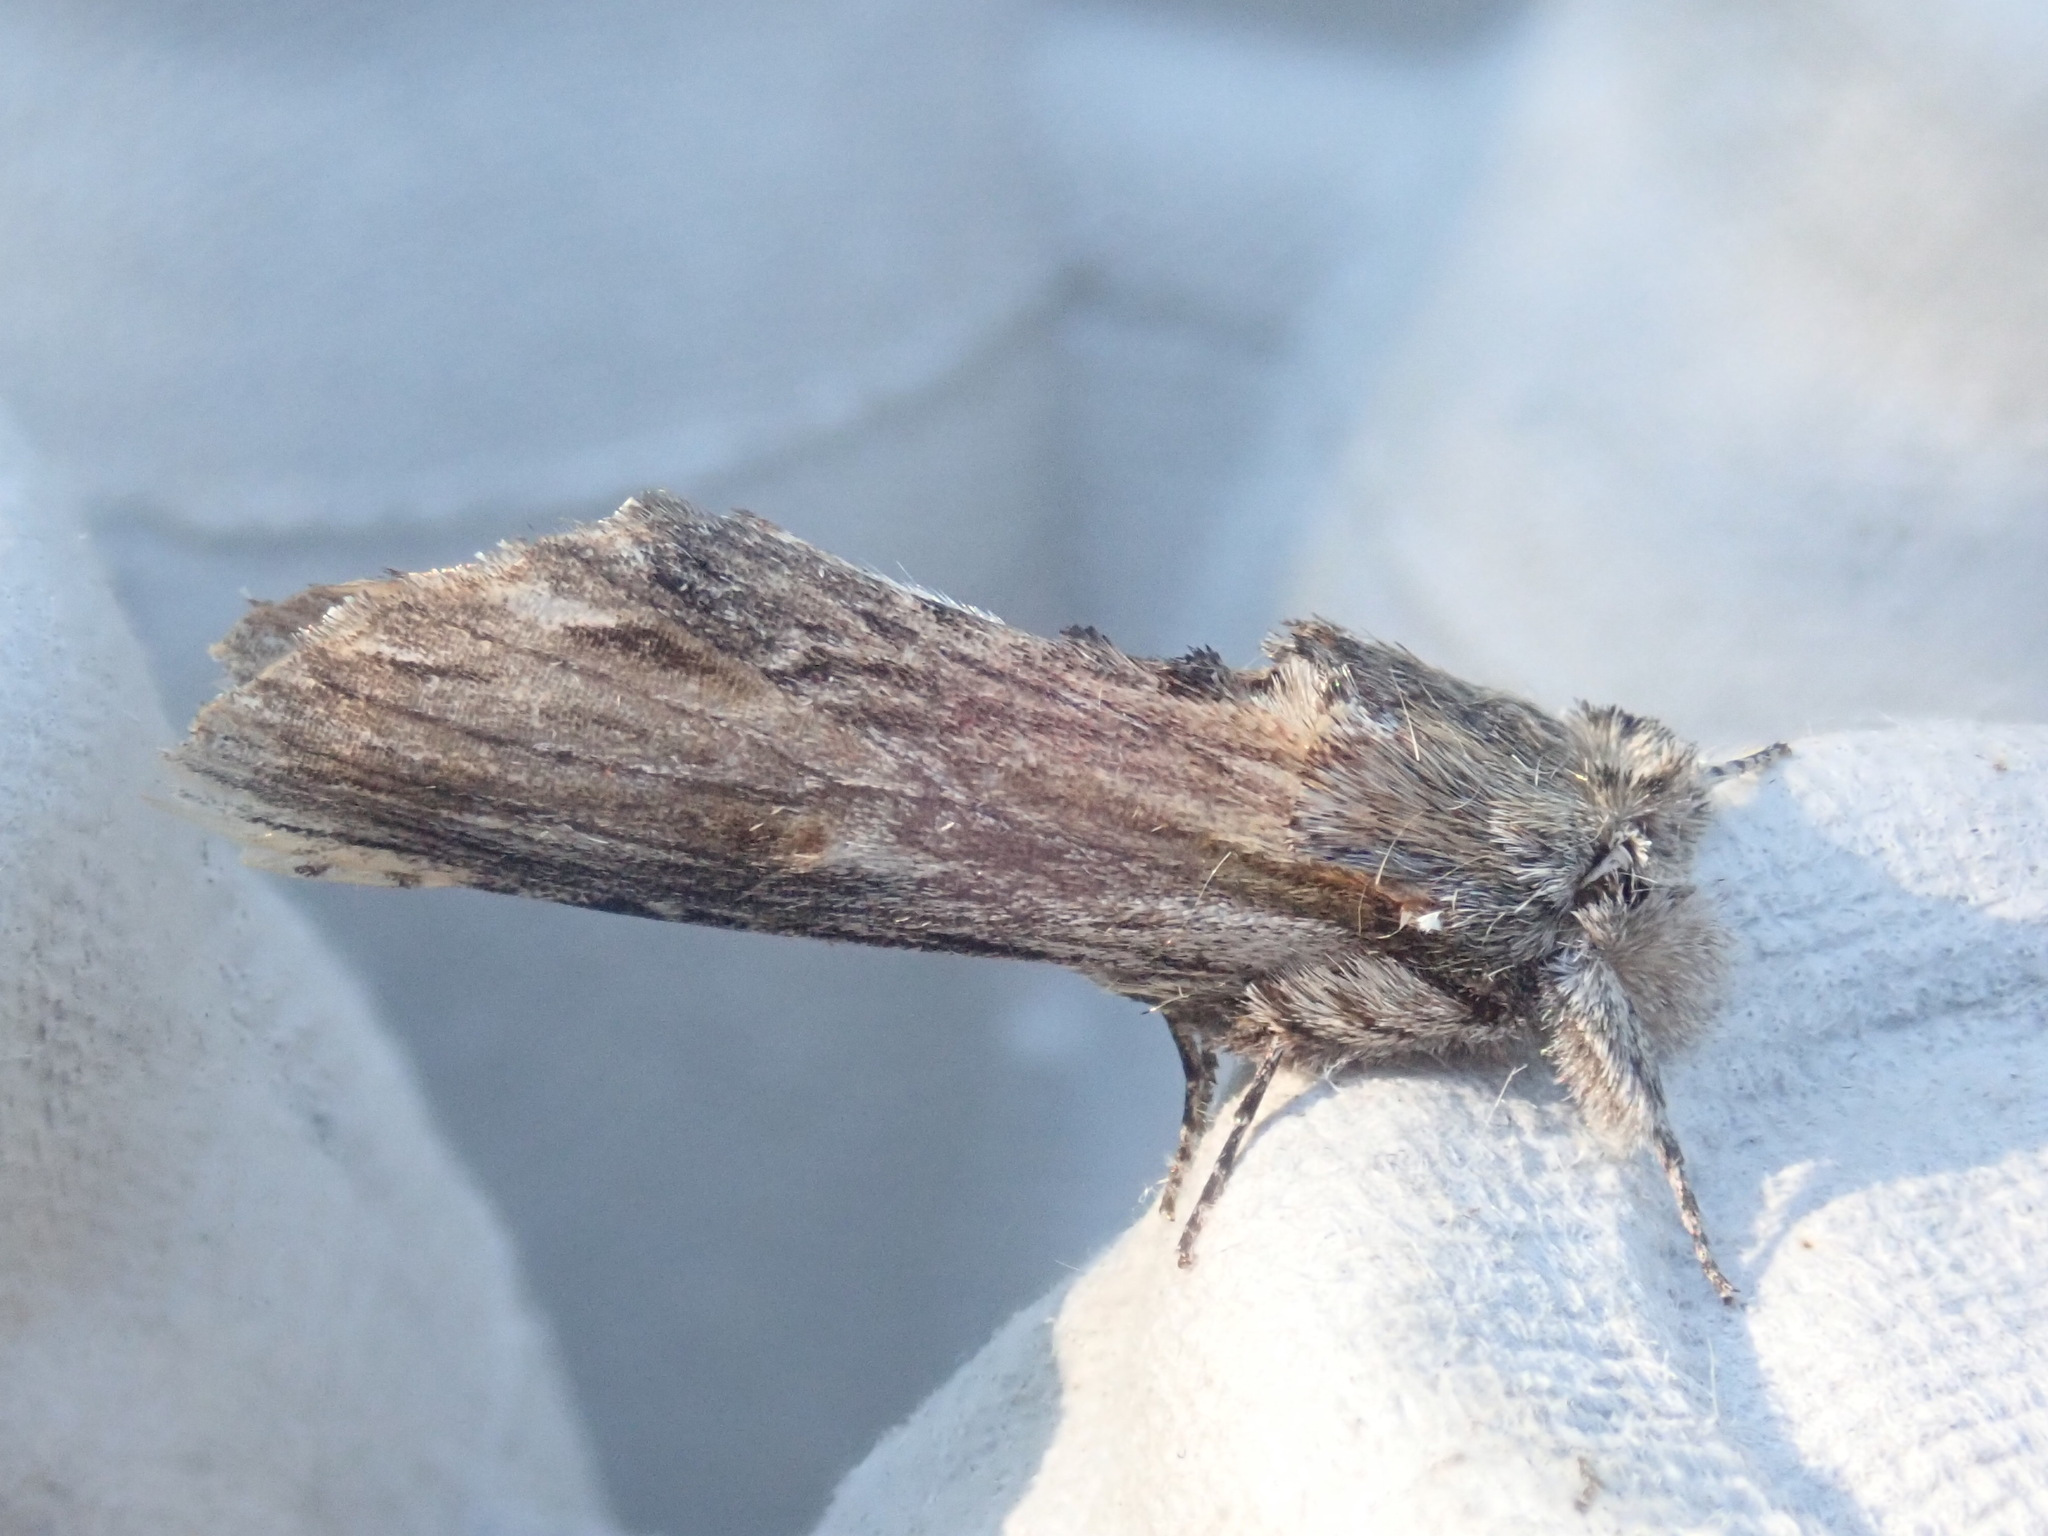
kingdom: Animalia
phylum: Arthropoda
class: Insecta
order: Lepidoptera
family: Notodontidae
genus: Oligocentria
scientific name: Oligocentria Ianassa lignicolor
